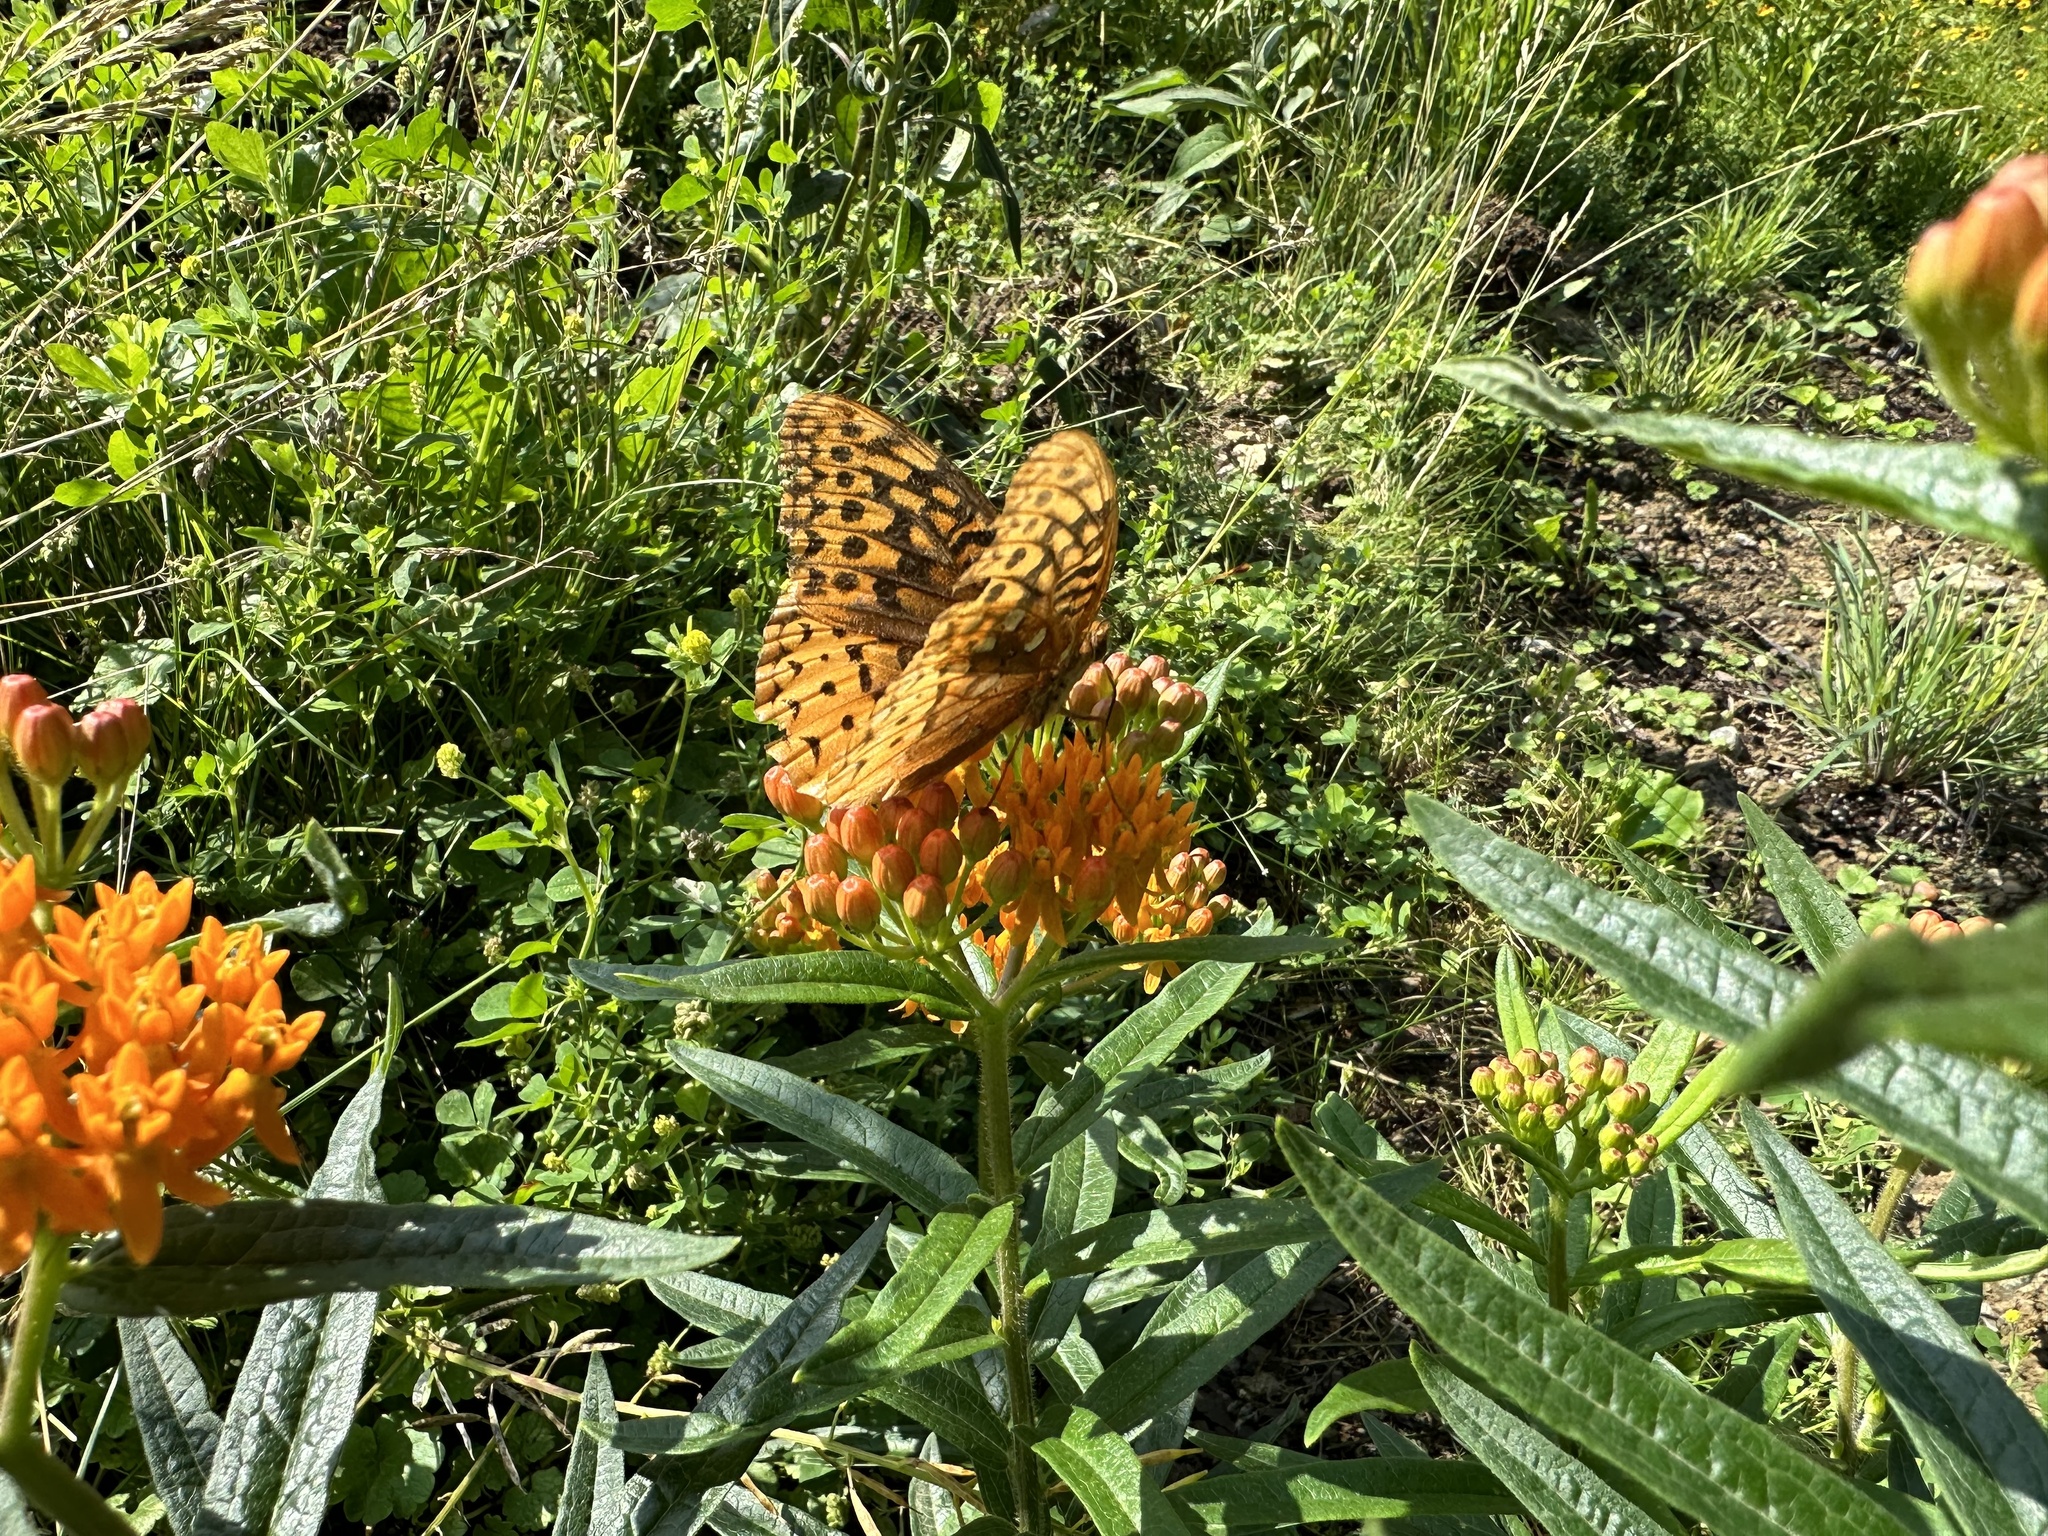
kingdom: Animalia
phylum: Arthropoda
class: Insecta
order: Lepidoptera
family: Nymphalidae
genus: Speyeria
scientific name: Speyeria cybele
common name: Great spangled fritillary
